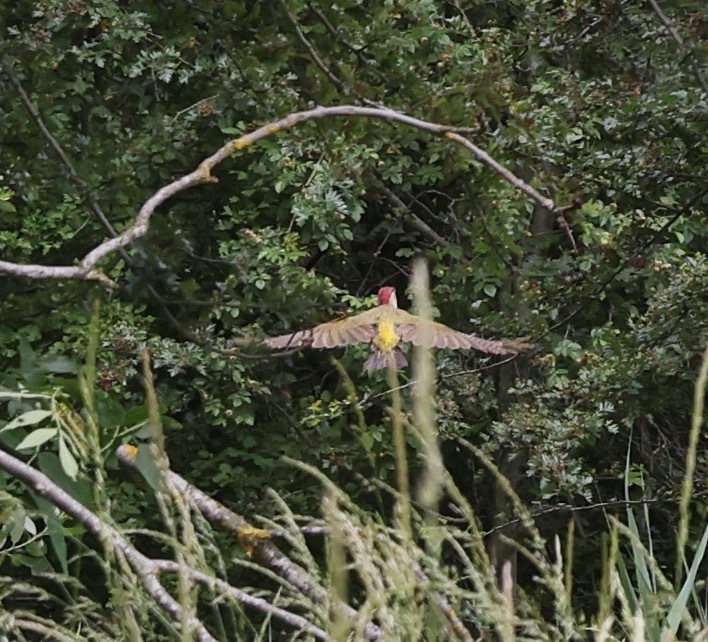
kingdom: Animalia
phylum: Chordata
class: Aves
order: Piciformes
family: Picidae
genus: Picus
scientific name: Picus viridis
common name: European green woodpecker
